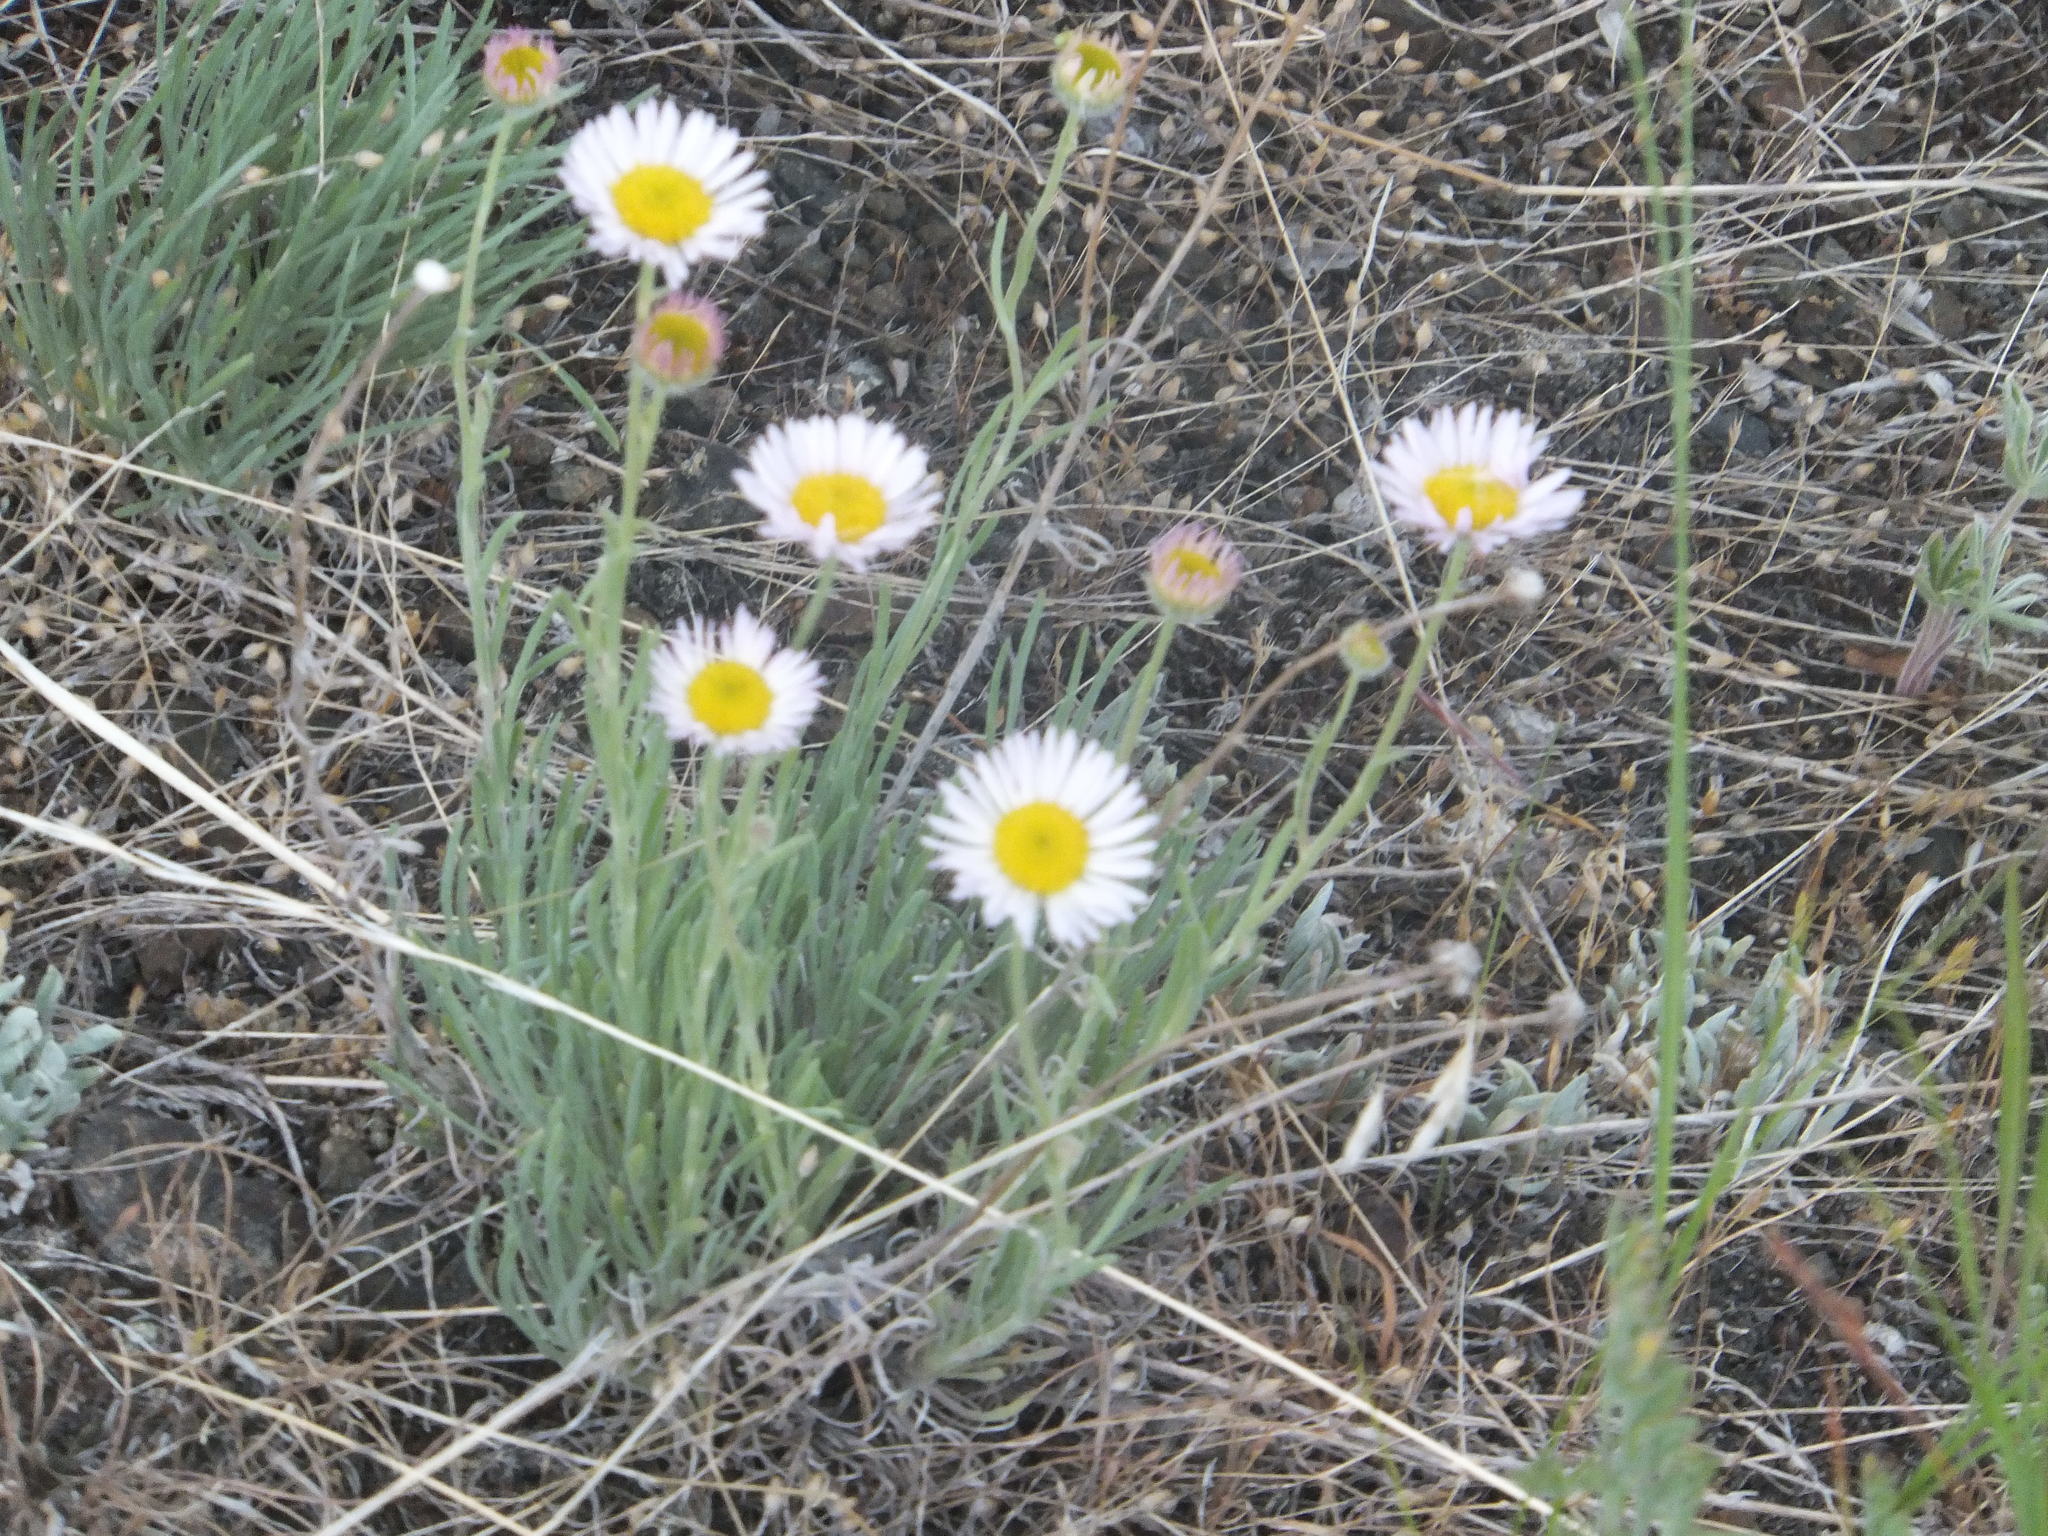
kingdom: Plantae
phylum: Tracheophyta
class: Magnoliopsida
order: Asterales
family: Asteraceae
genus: Erigeron
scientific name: Erigeron filifolius
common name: Threadleaf fleabane
